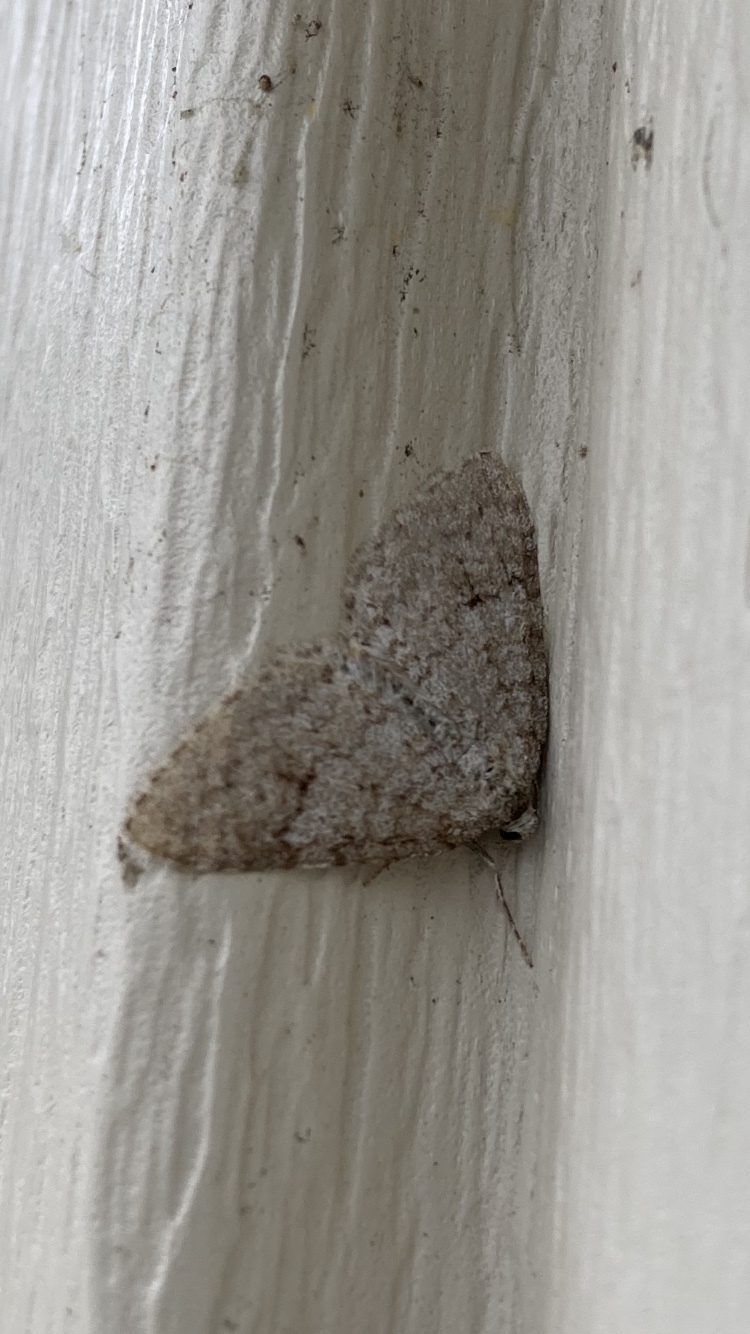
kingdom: Animalia
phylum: Arthropoda
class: Insecta
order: Lepidoptera
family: Geometridae
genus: Venusia
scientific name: Venusia comptaria
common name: Brown-shaded carpet
